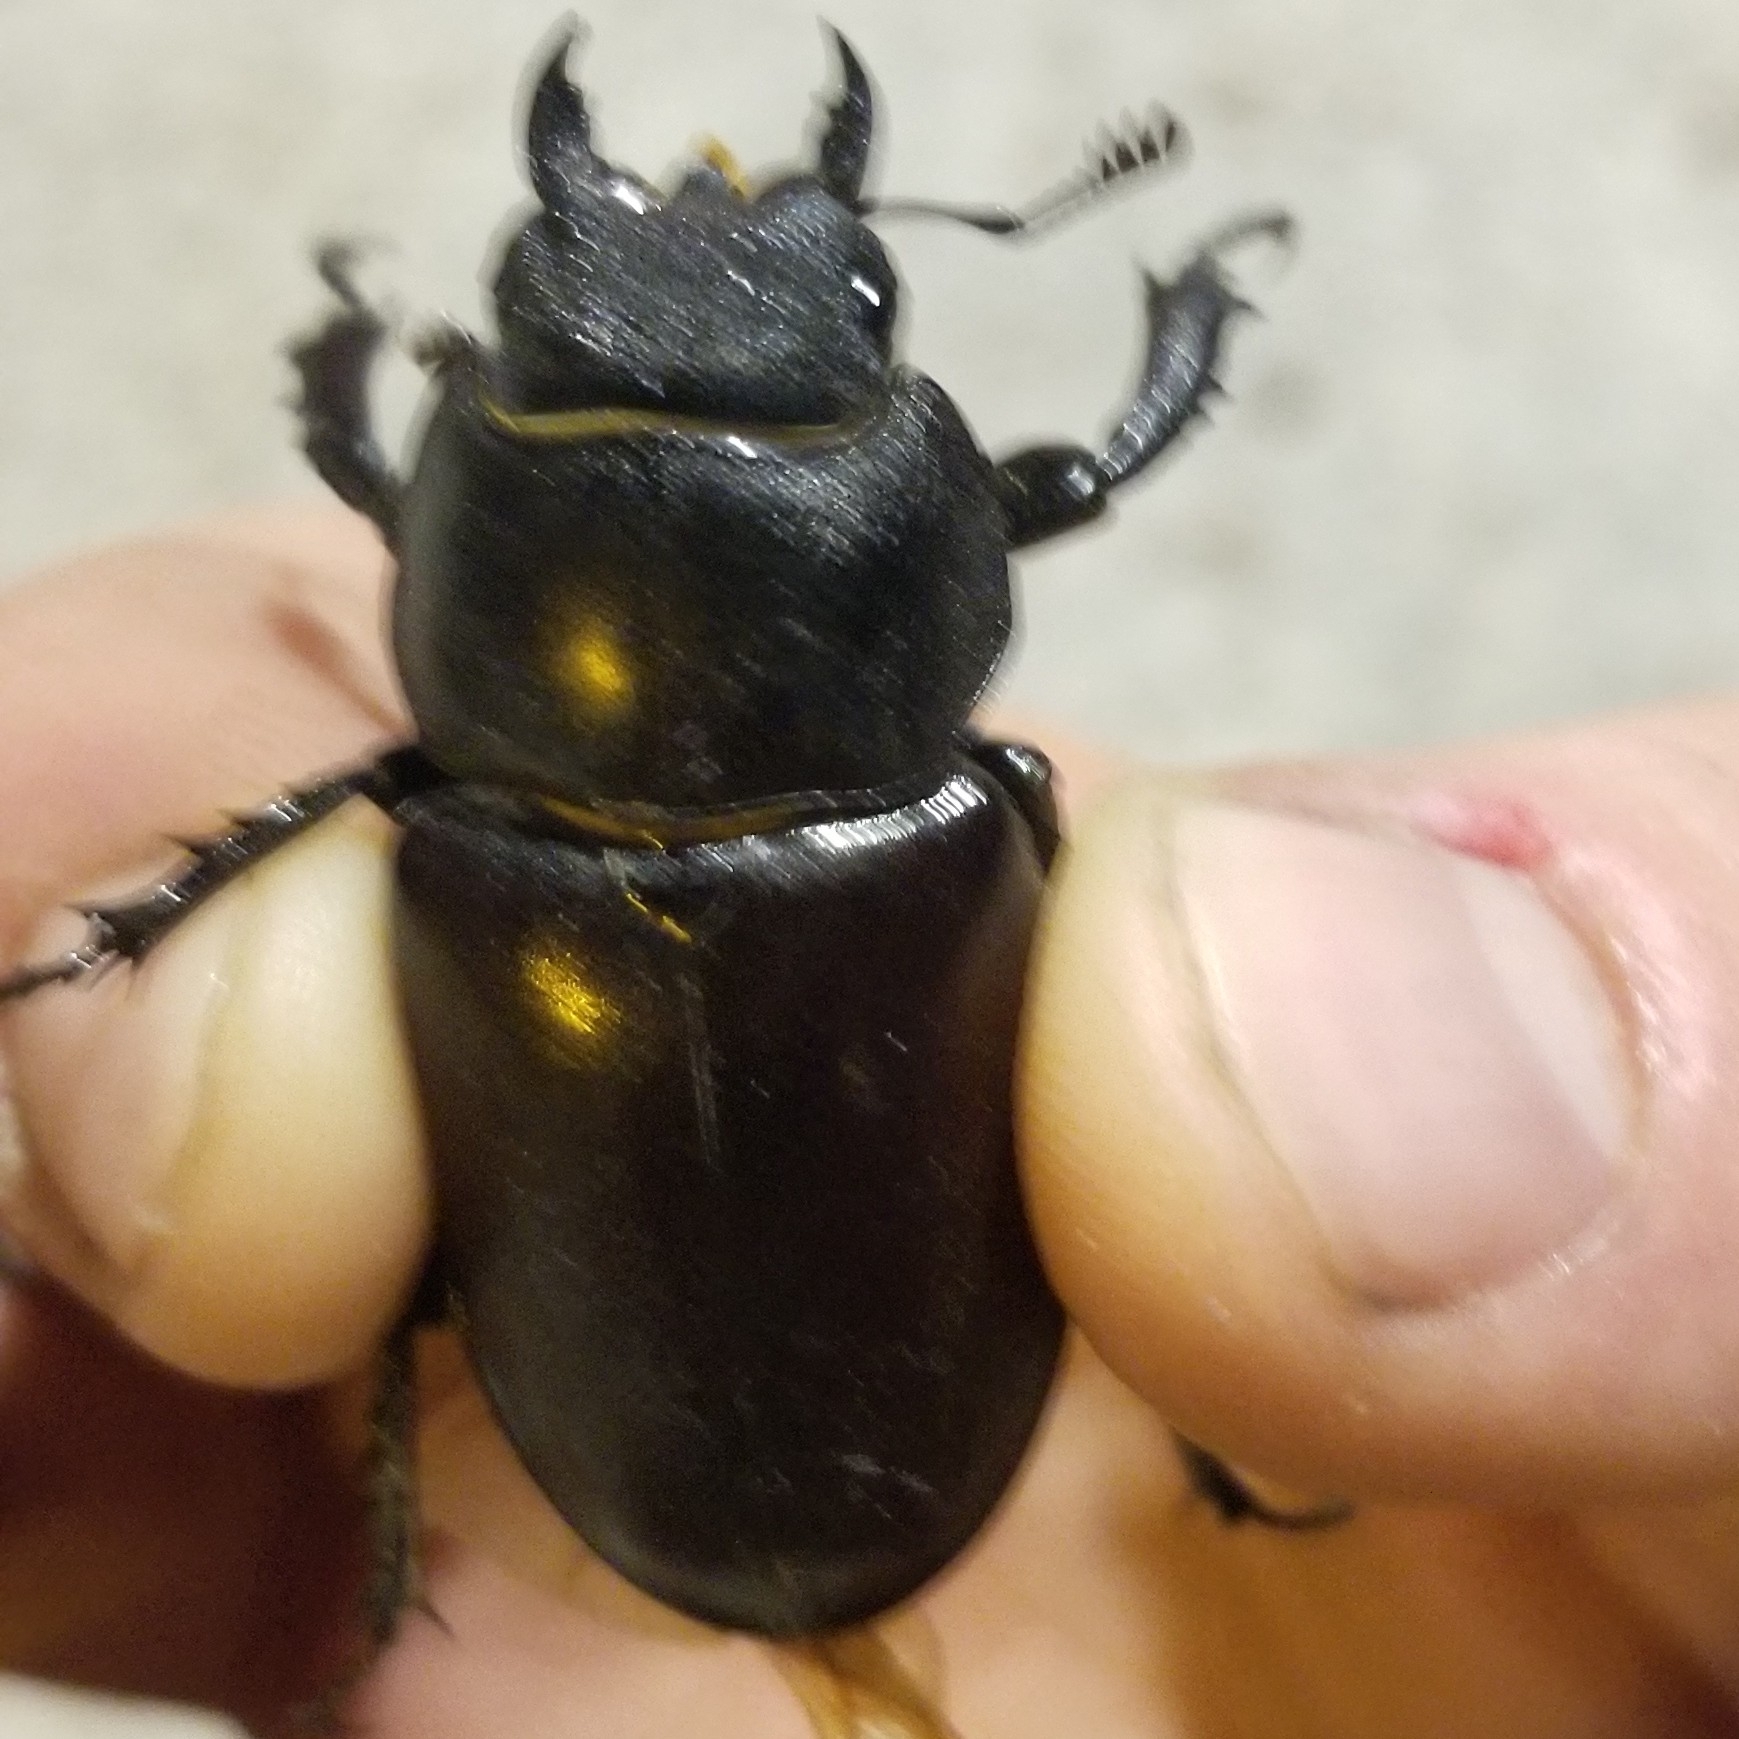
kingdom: Animalia
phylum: Arthropoda
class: Insecta
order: Coleoptera
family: Lucanidae
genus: Lucanus
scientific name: Lucanus cervus
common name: Stag beetle
